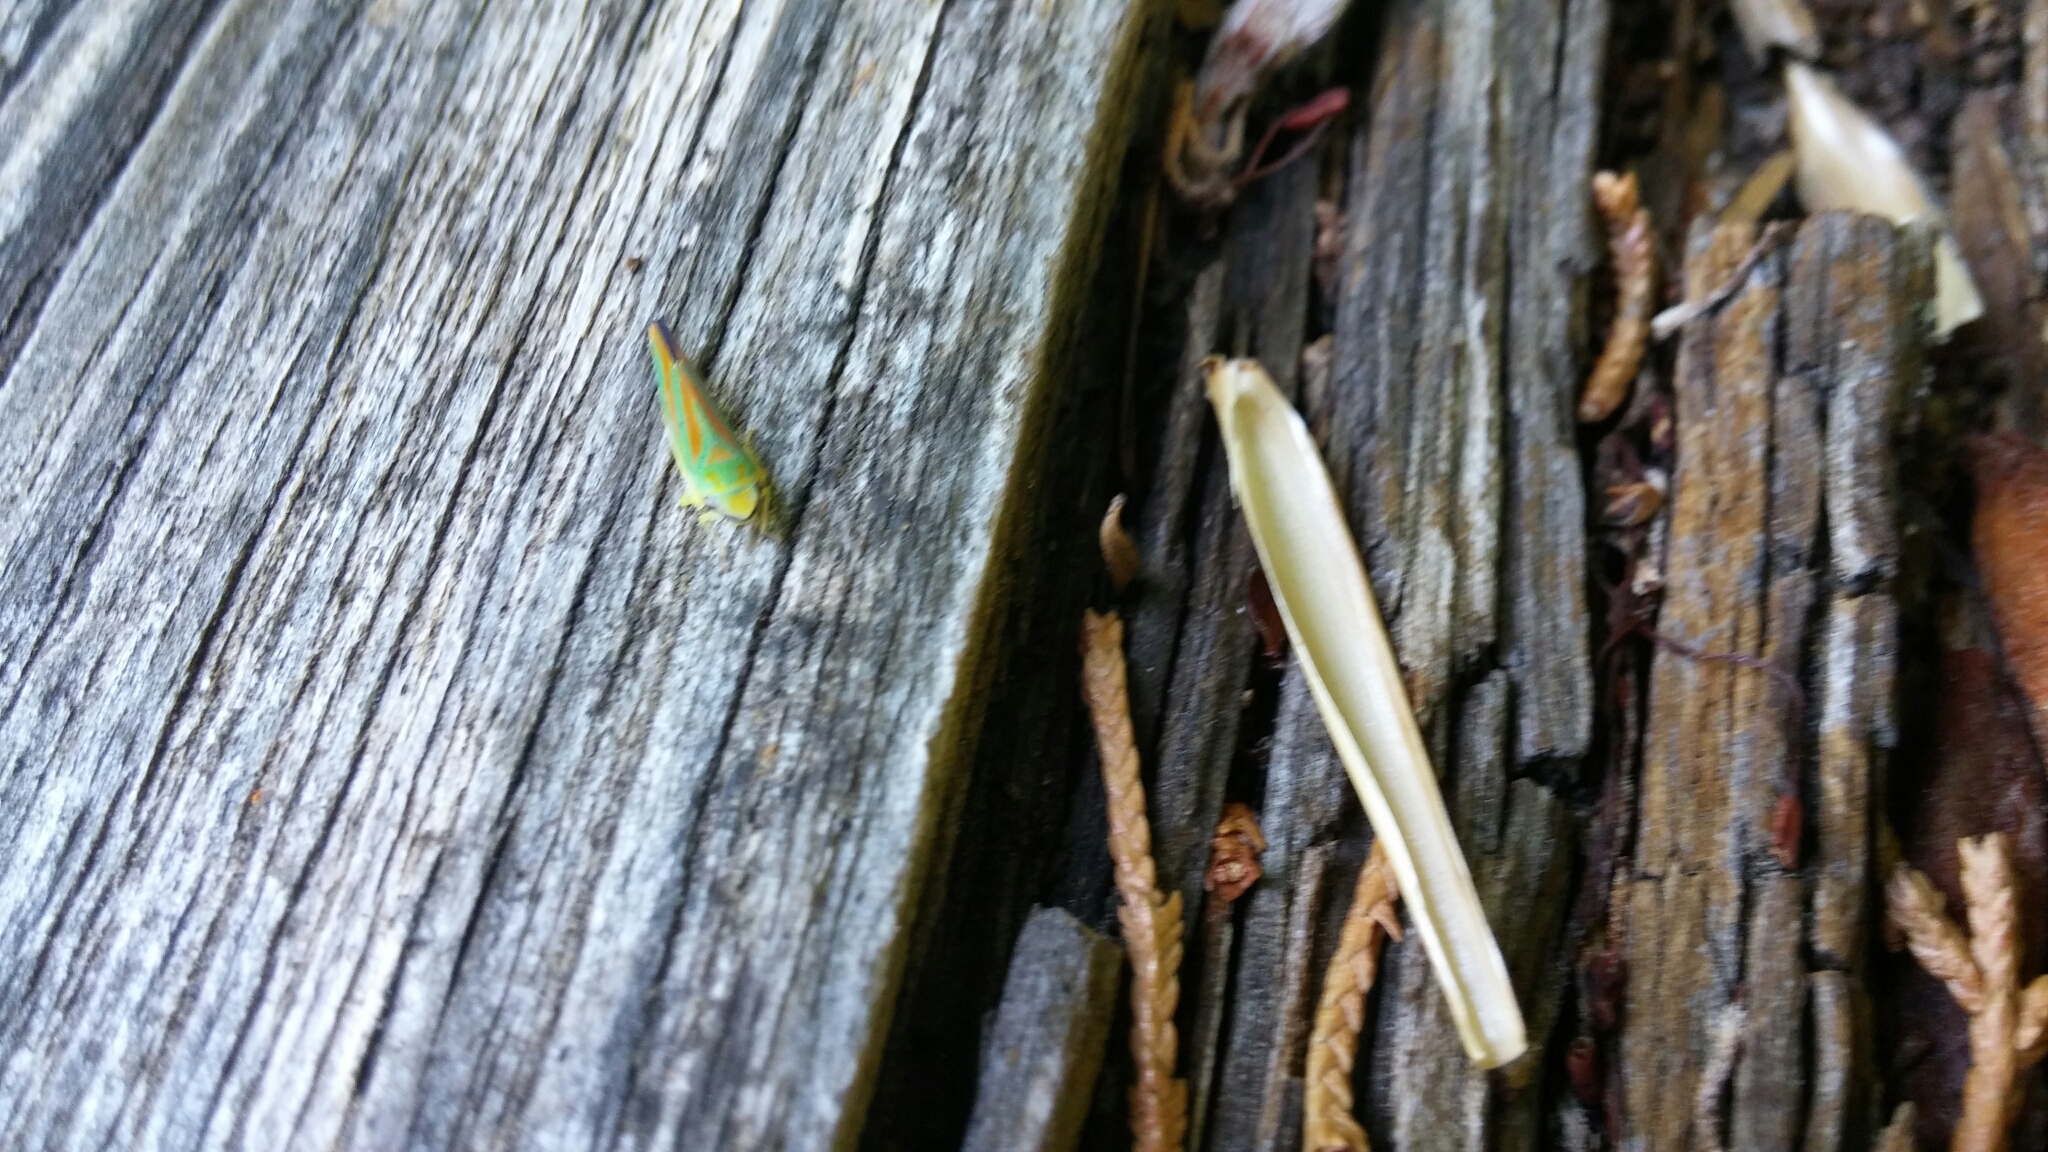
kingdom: Animalia
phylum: Arthropoda
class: Insecta
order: Hemiptera
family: Cicadellidae
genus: Graphocephala
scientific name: Graphocephala fennahi
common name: Rhododendron leafhopper
